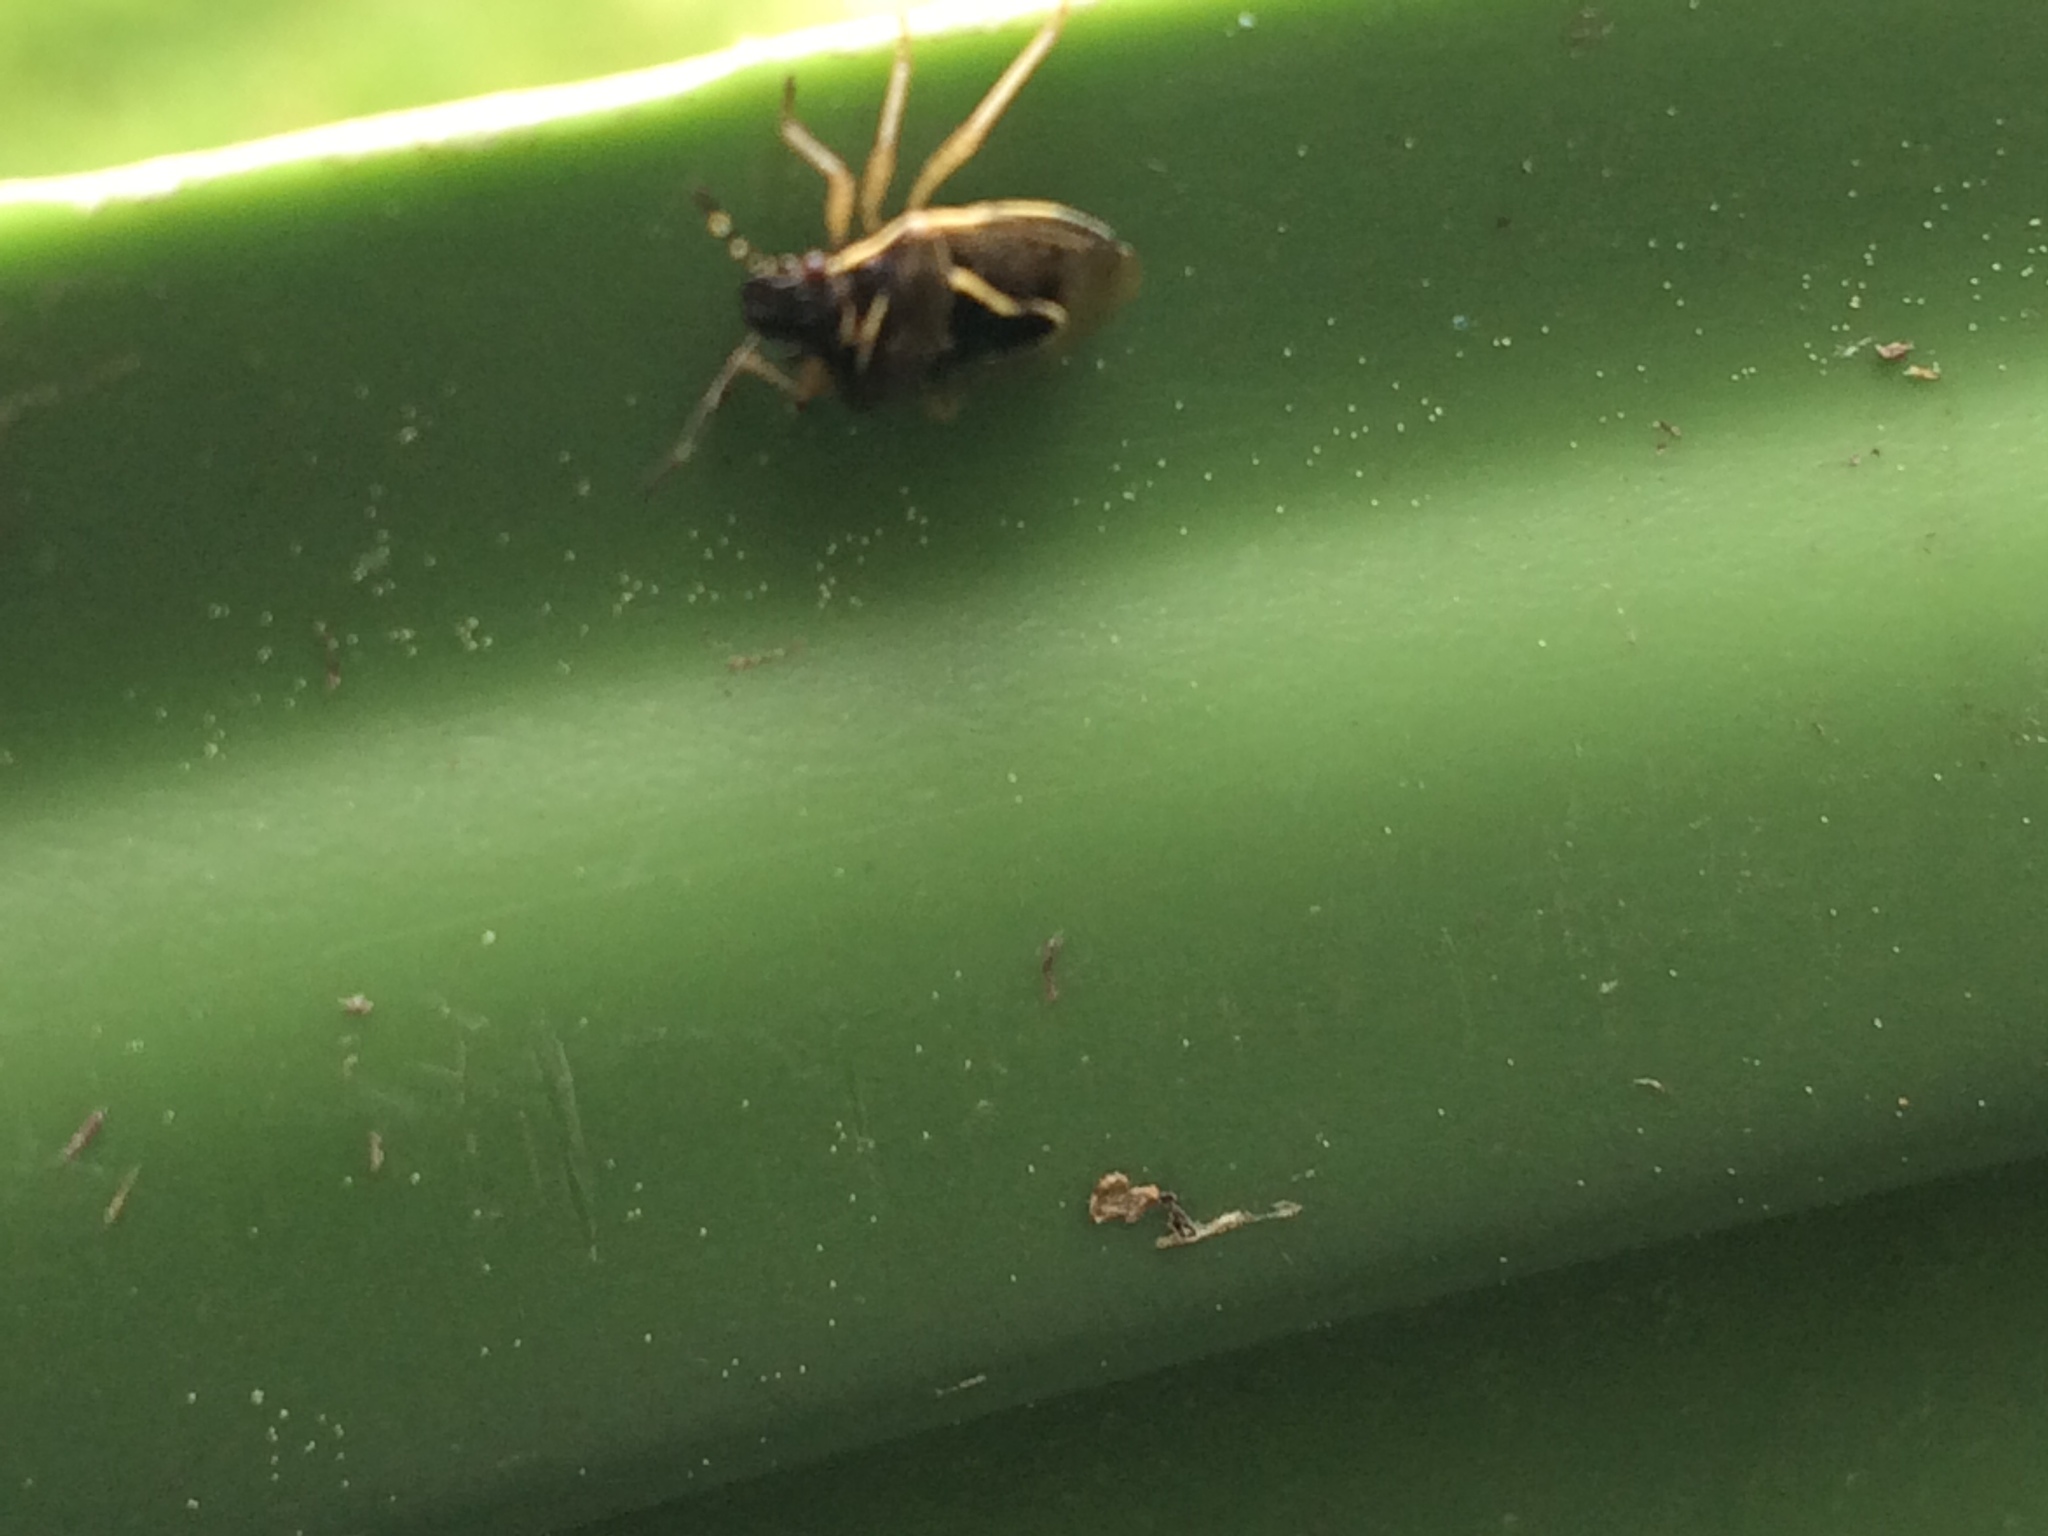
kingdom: Animalia
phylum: Arthropoda
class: Insecta
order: Hemiptera
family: Pentatomidae
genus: Mormidea
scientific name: Mormidea lugens
